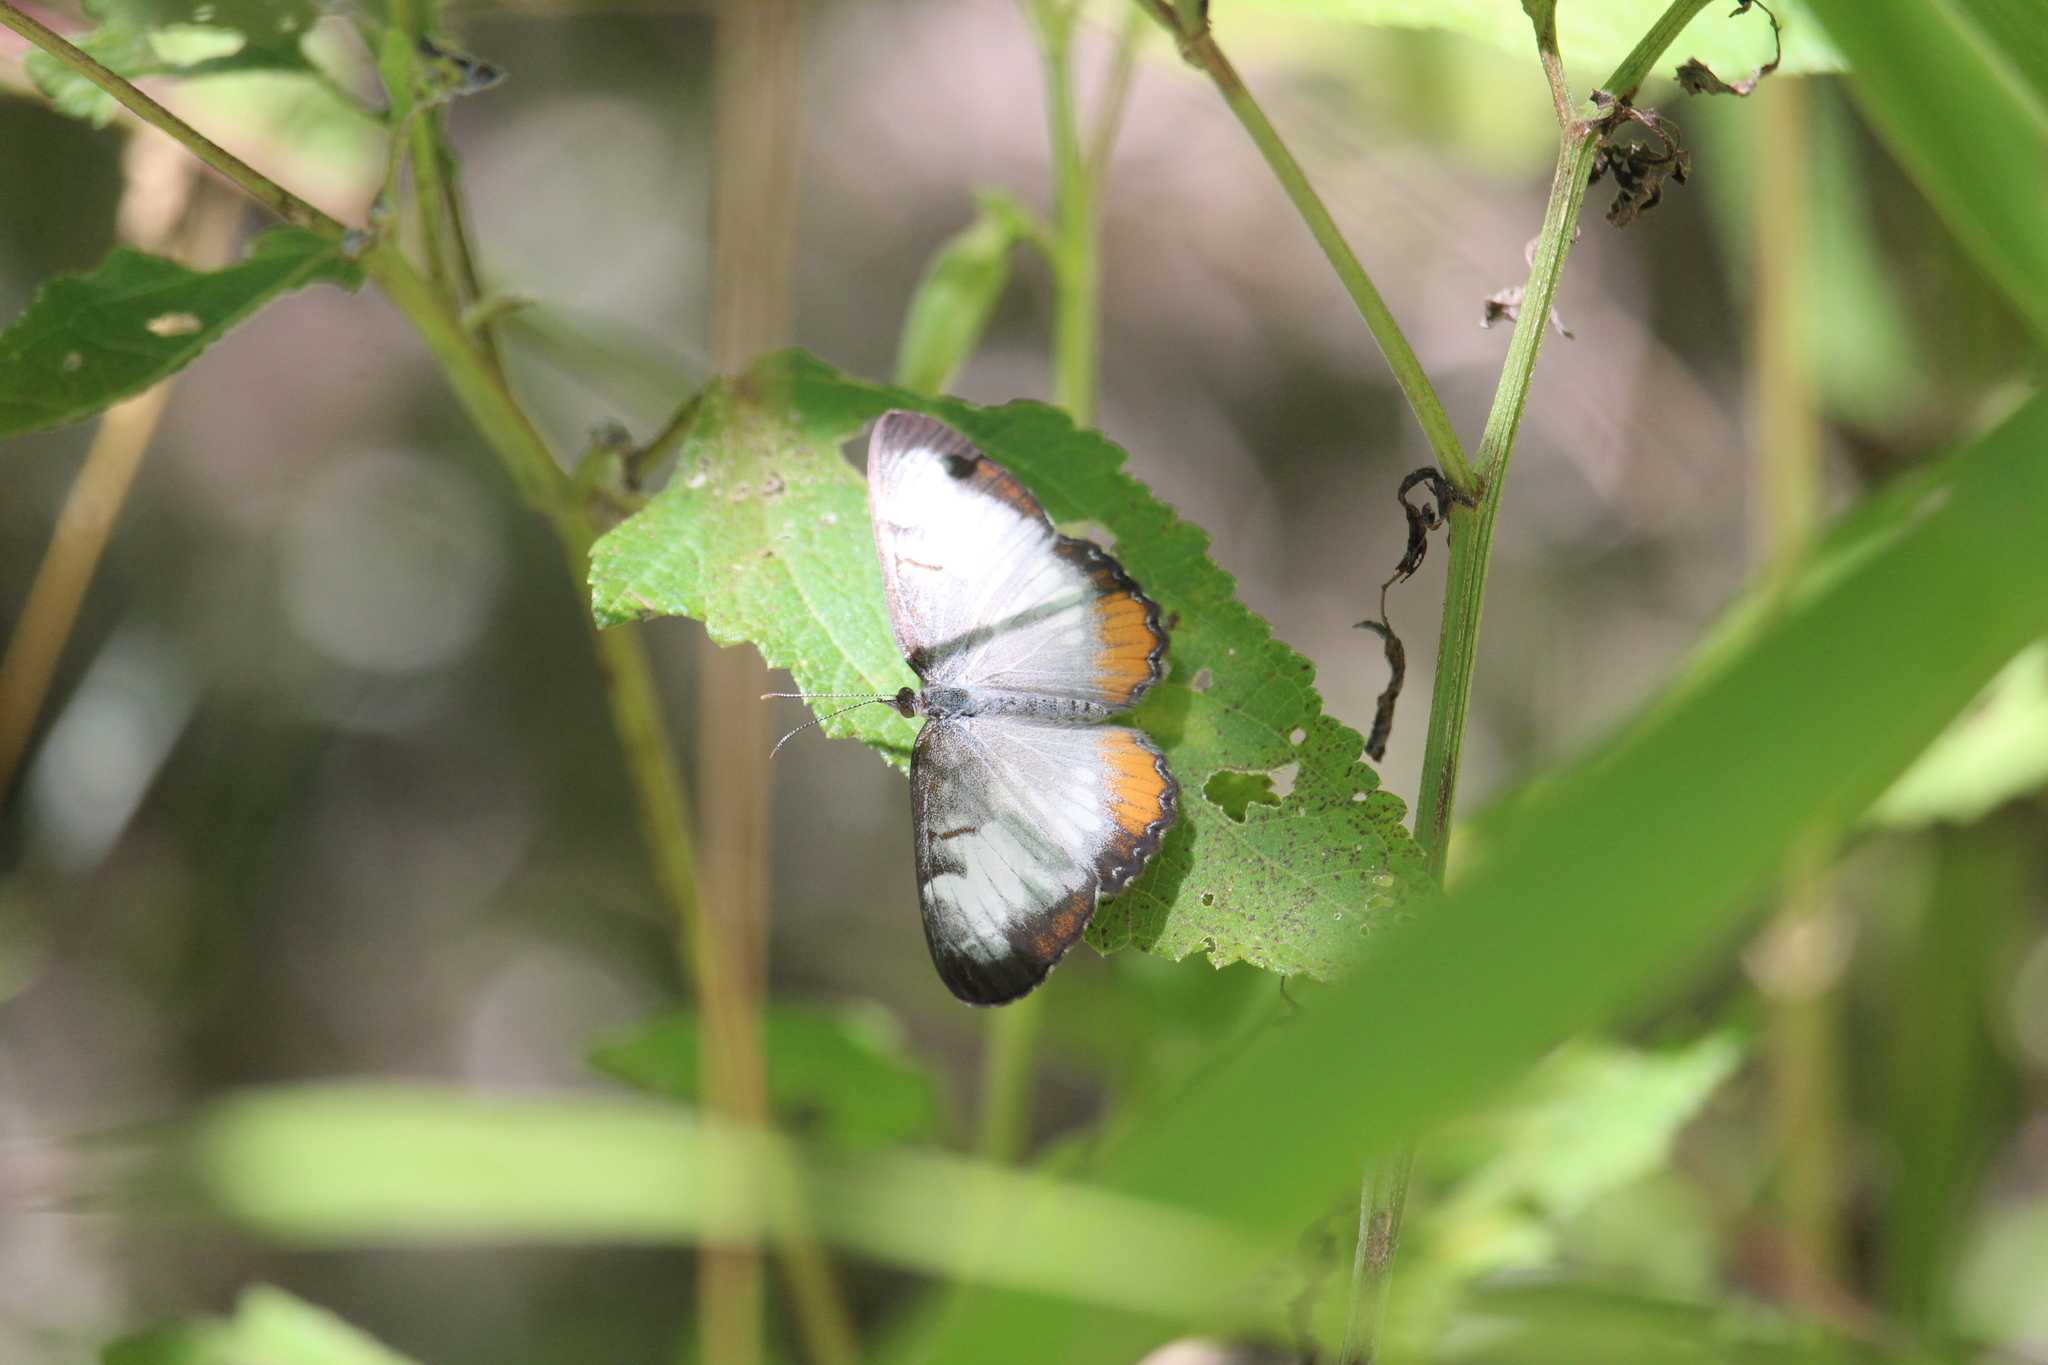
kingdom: Animalia
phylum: Arthropoda
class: Insecta
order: Lepidoptera
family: Nymphalidae
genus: Mestra
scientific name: Mestra amymone
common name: Common mestra
